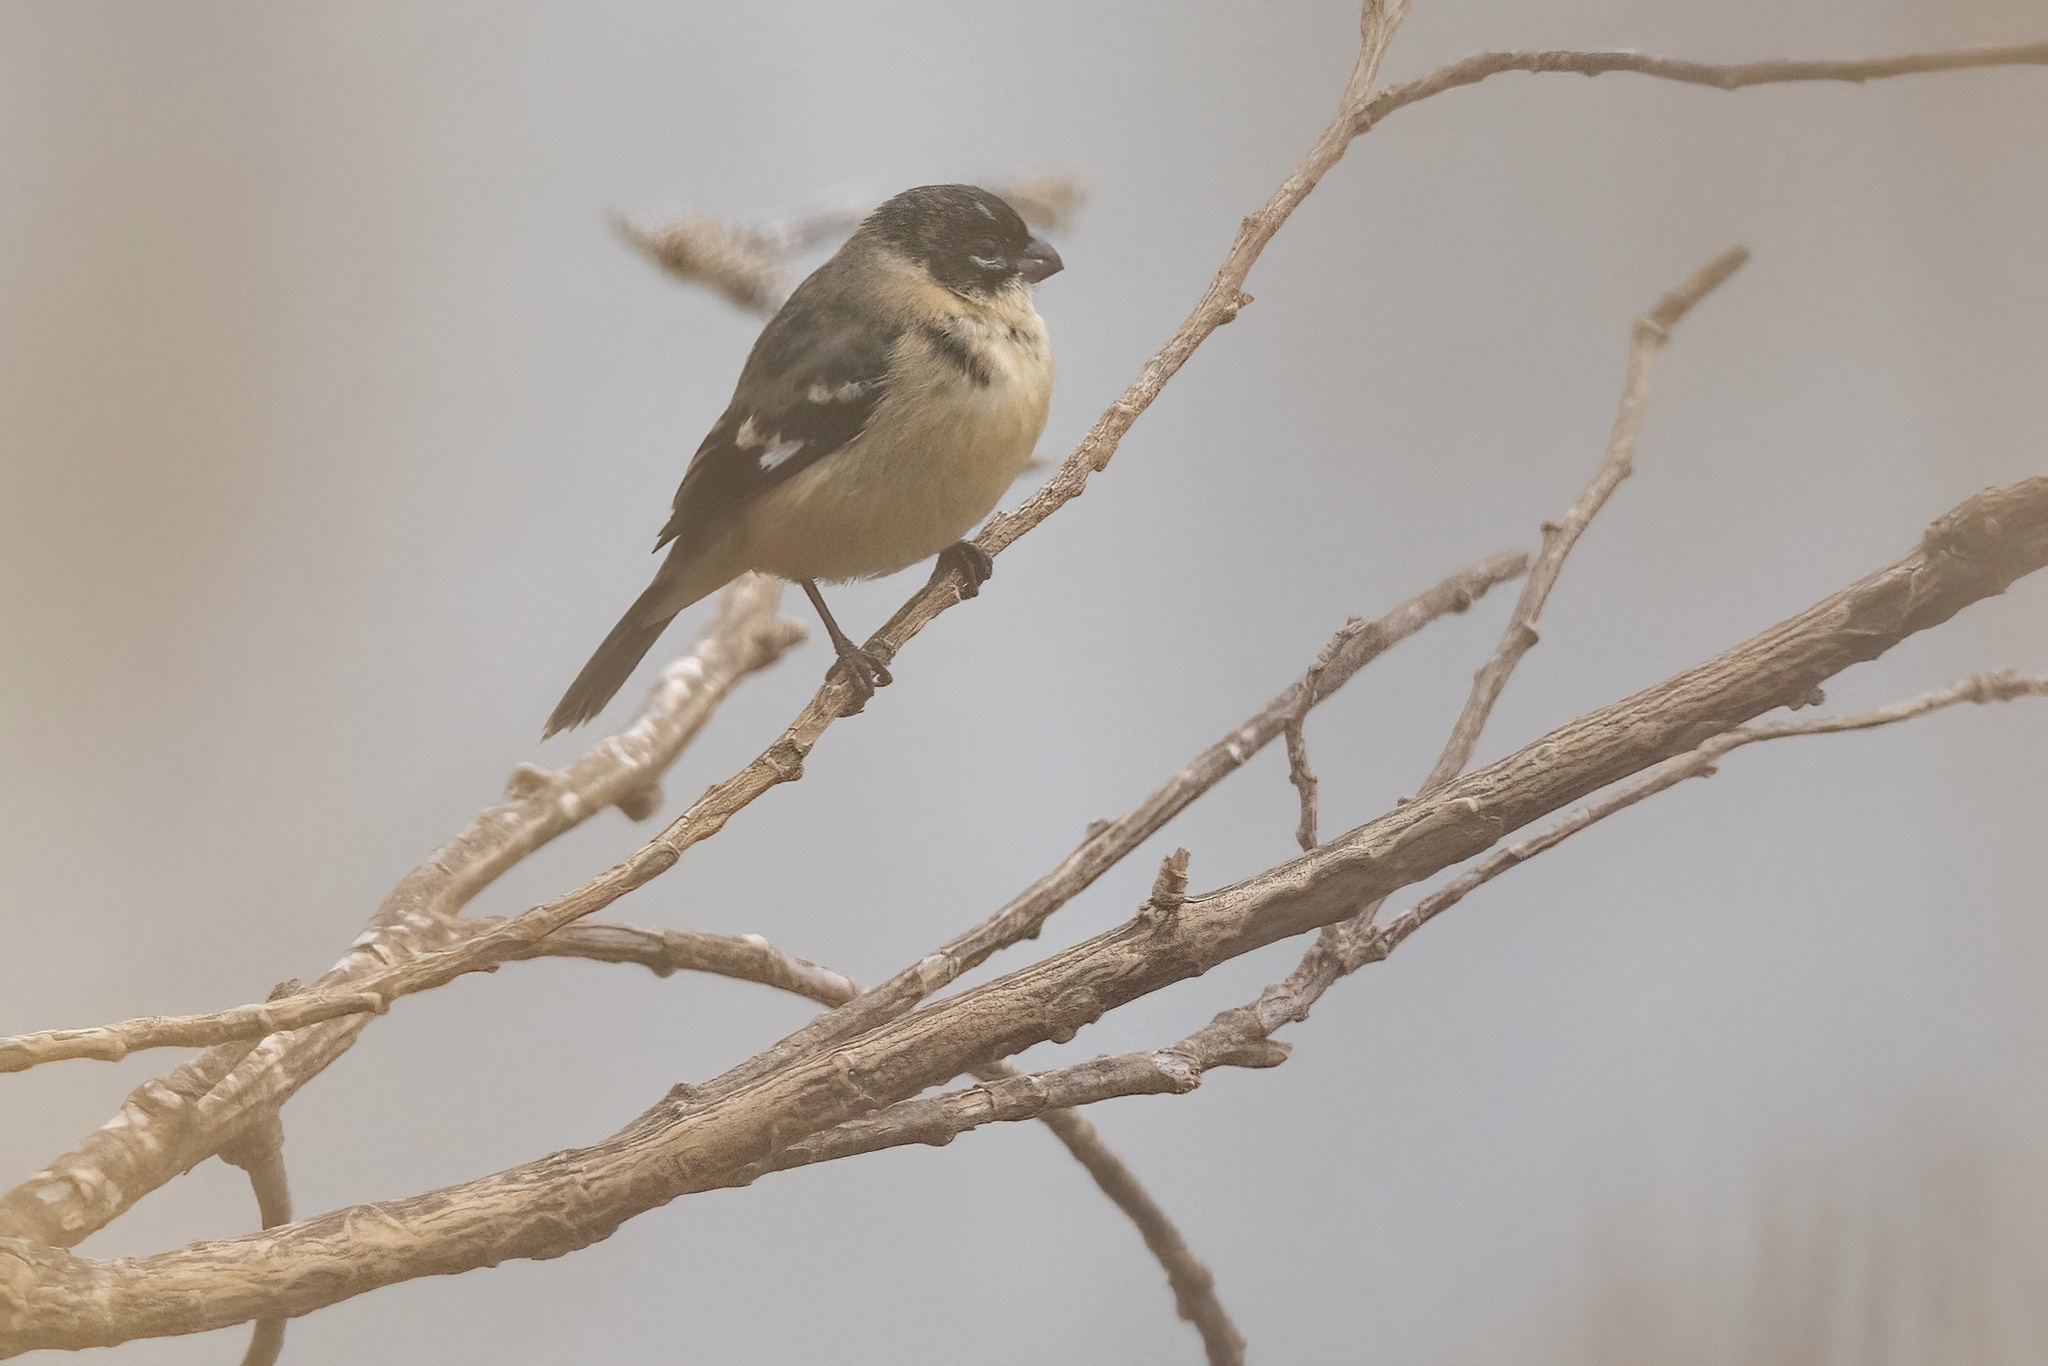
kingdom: Animalia
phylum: Chordata
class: Aves
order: Passeriformes
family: Thraupidae
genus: Sporophila
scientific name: Sporophila morelleti
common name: Morelet's seedeater
